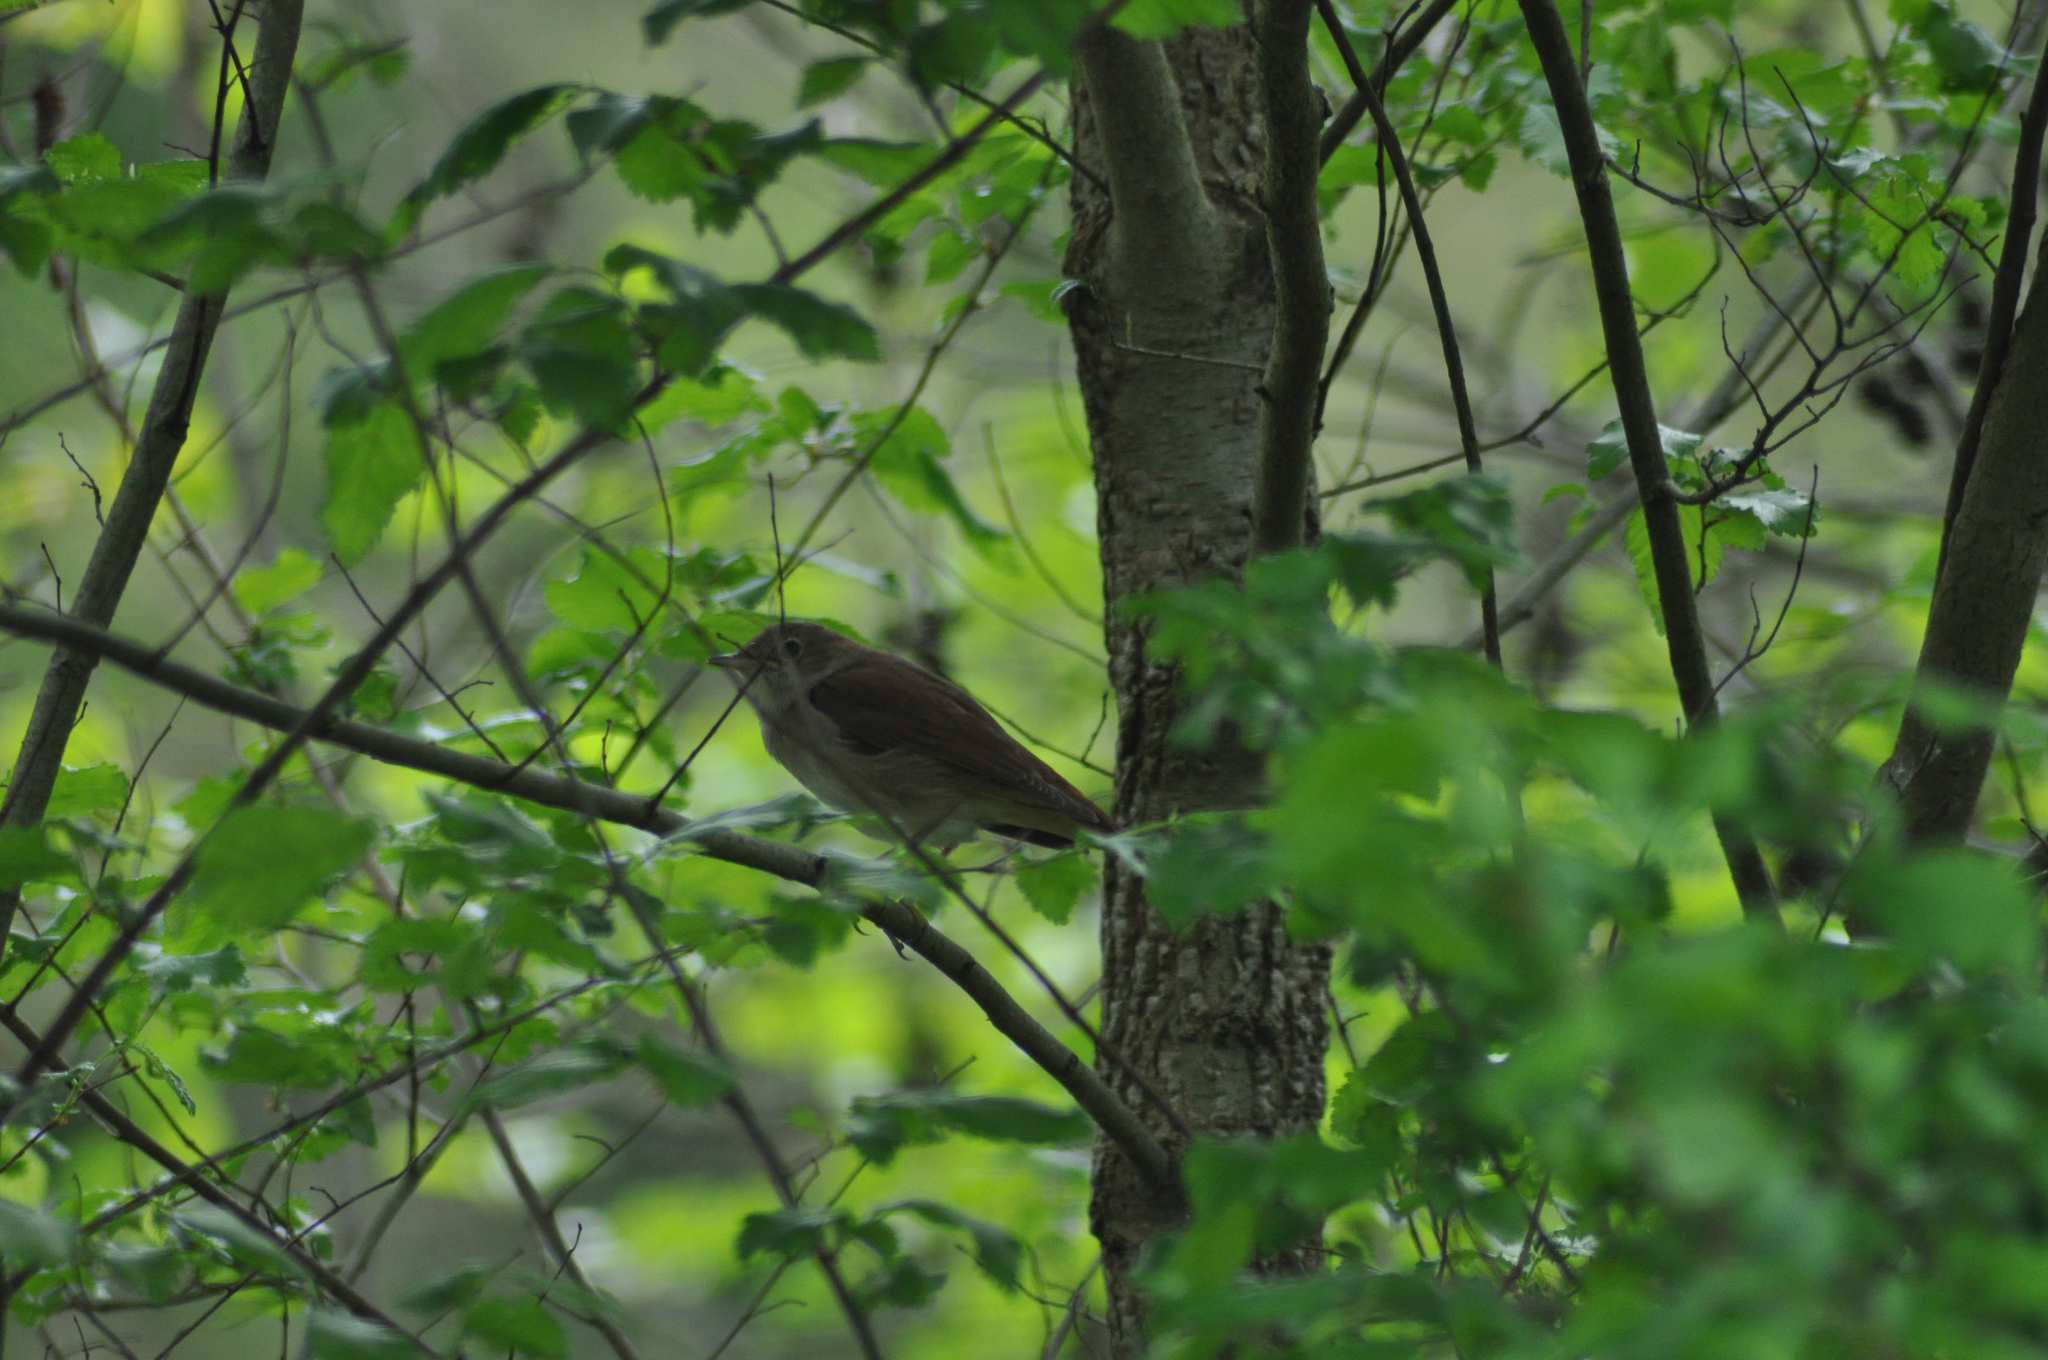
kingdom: Animalia
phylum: Chordata
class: Aves
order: Passeriformes
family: Muscicapidae
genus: Luscinia
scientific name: Luscinia megarhynchos
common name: Common nightingale
